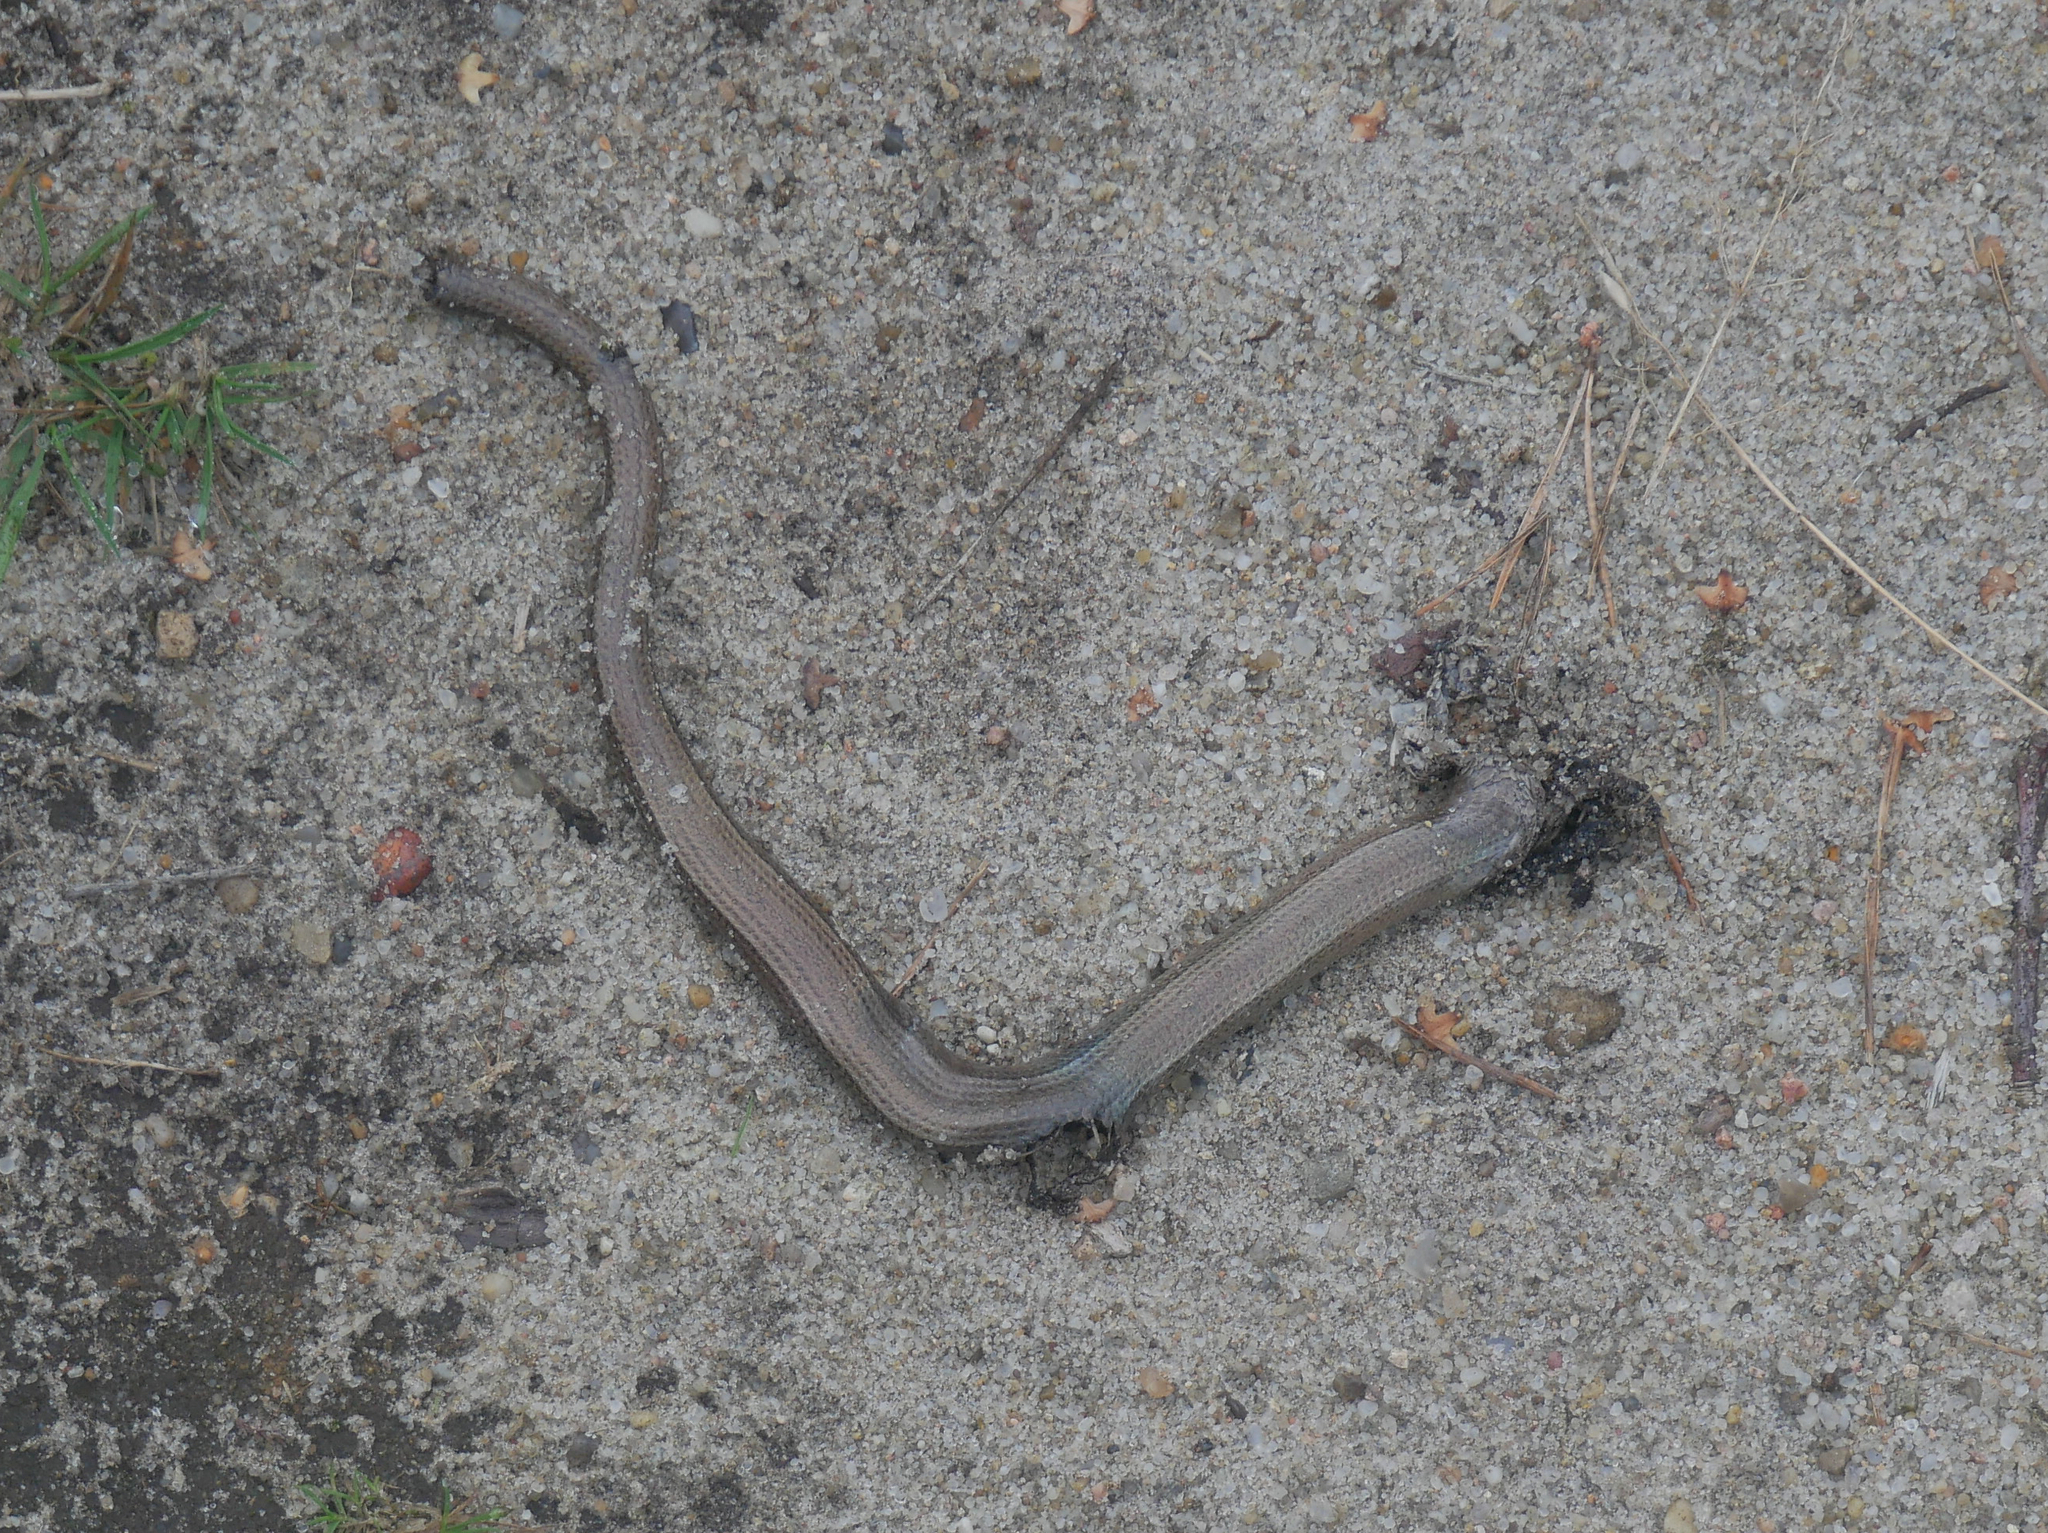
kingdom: Animalia
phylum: Chordata
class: Squamata
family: Anguidae
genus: Anguis
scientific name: Anguis fragilis
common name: Slow worm
